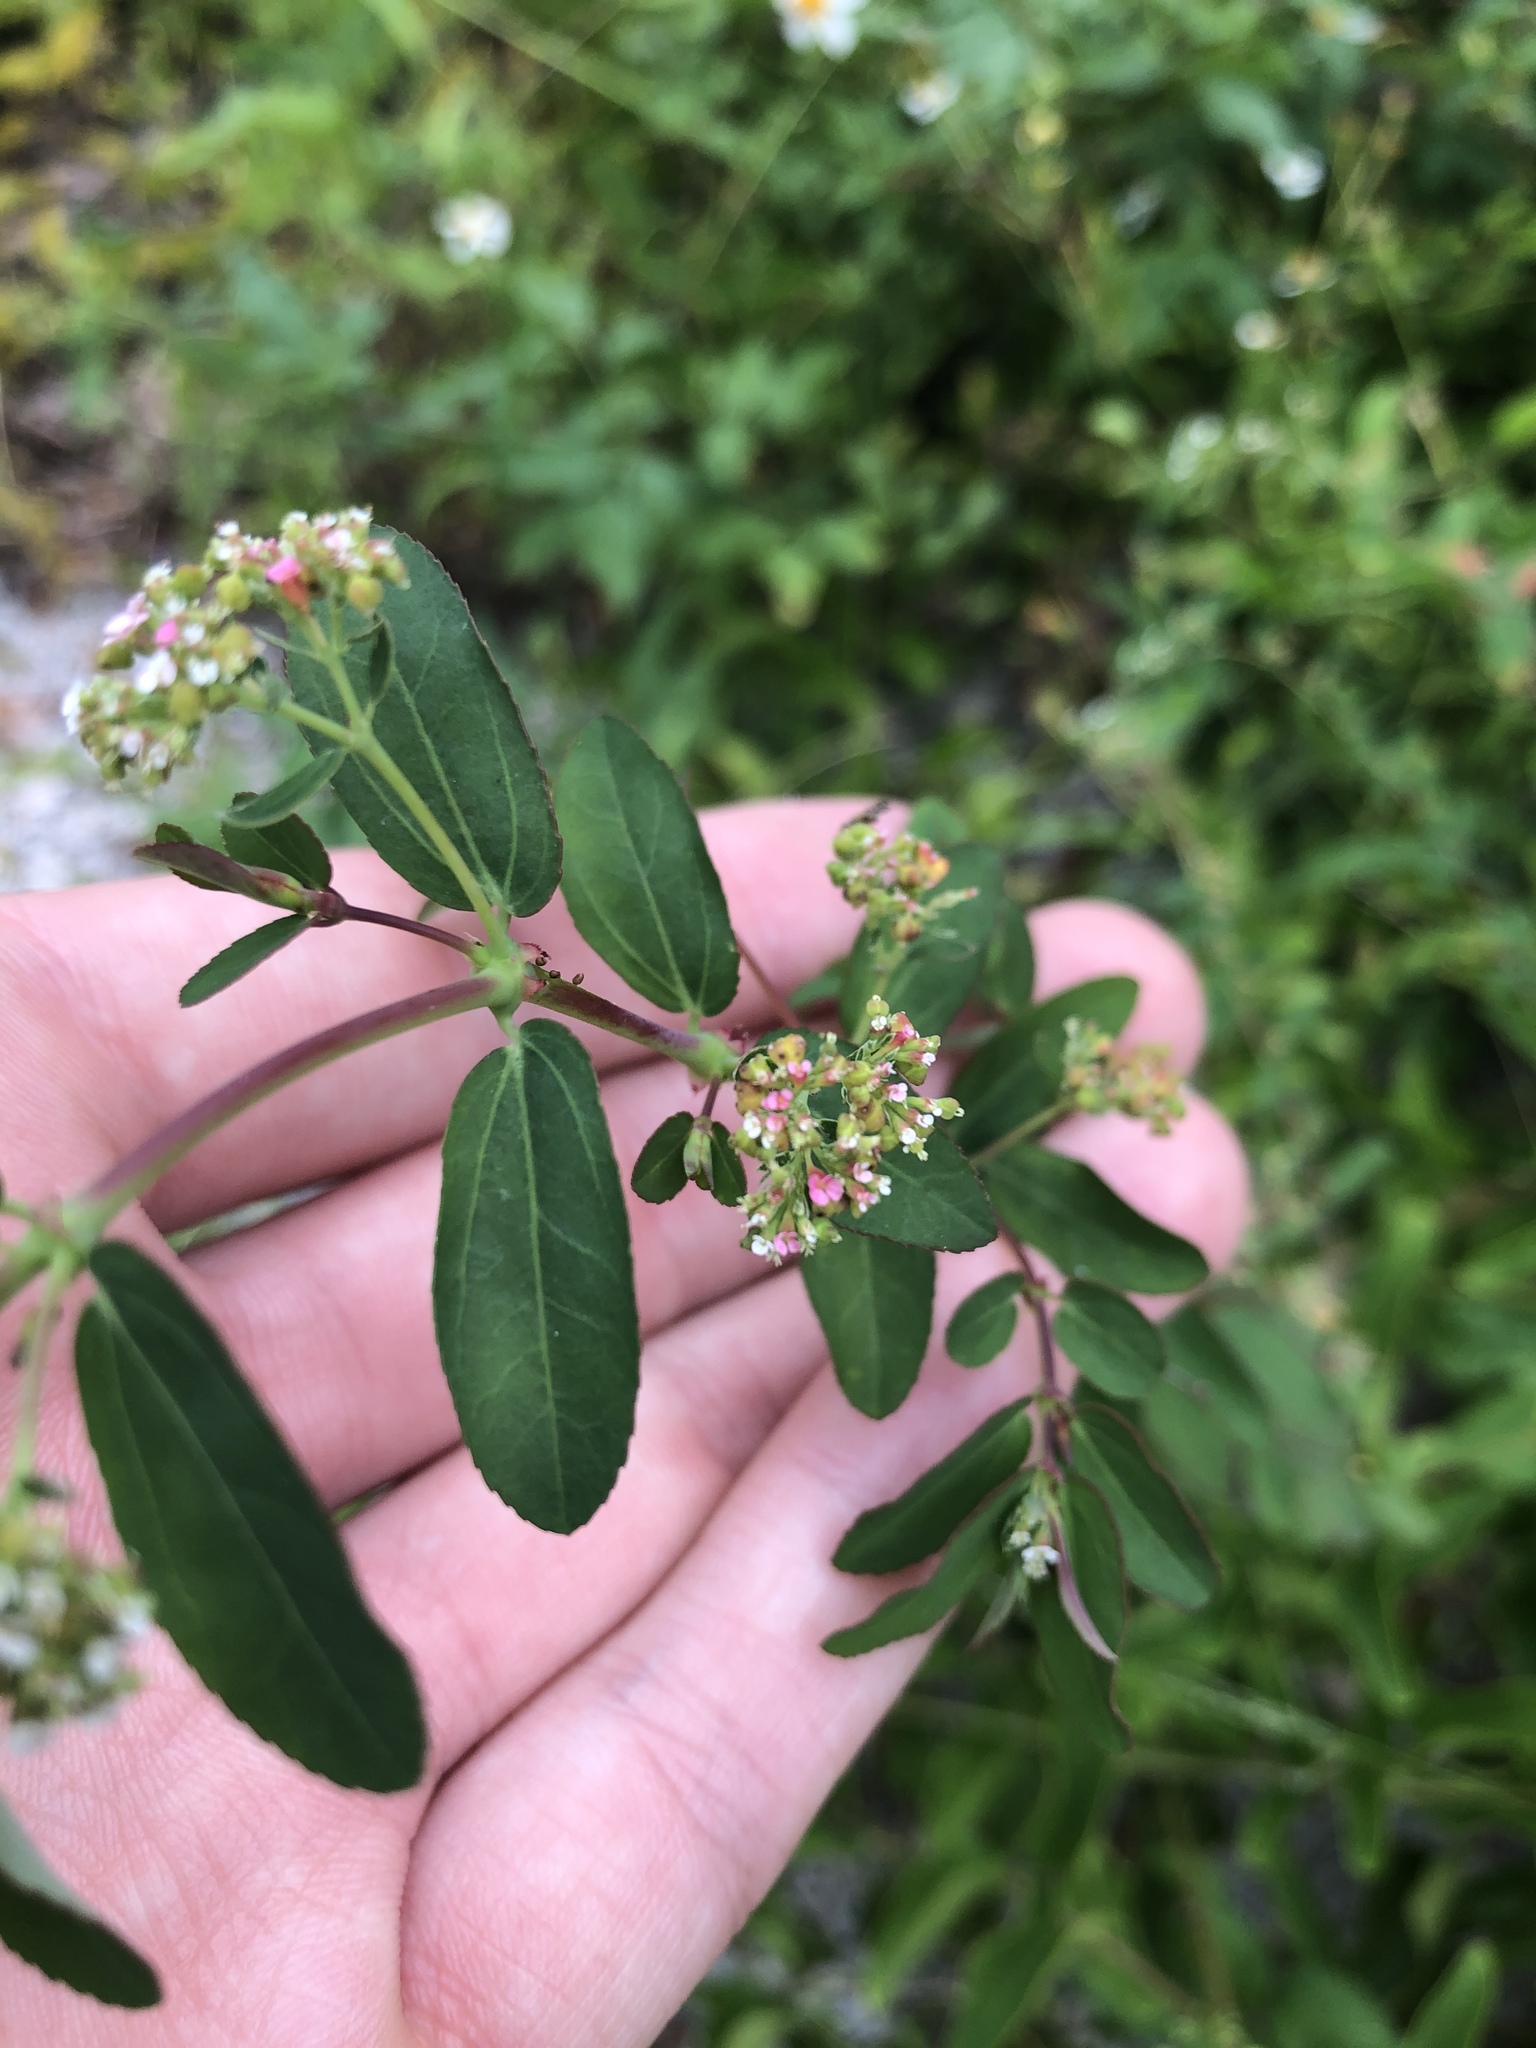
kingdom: Plantae
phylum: Tracheophyta
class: Magnoliopsida
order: Malpighiales
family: Euphorbiaceae
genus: Euphorbia
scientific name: Euphorbia hypericifolia
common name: Graceful sandmat
